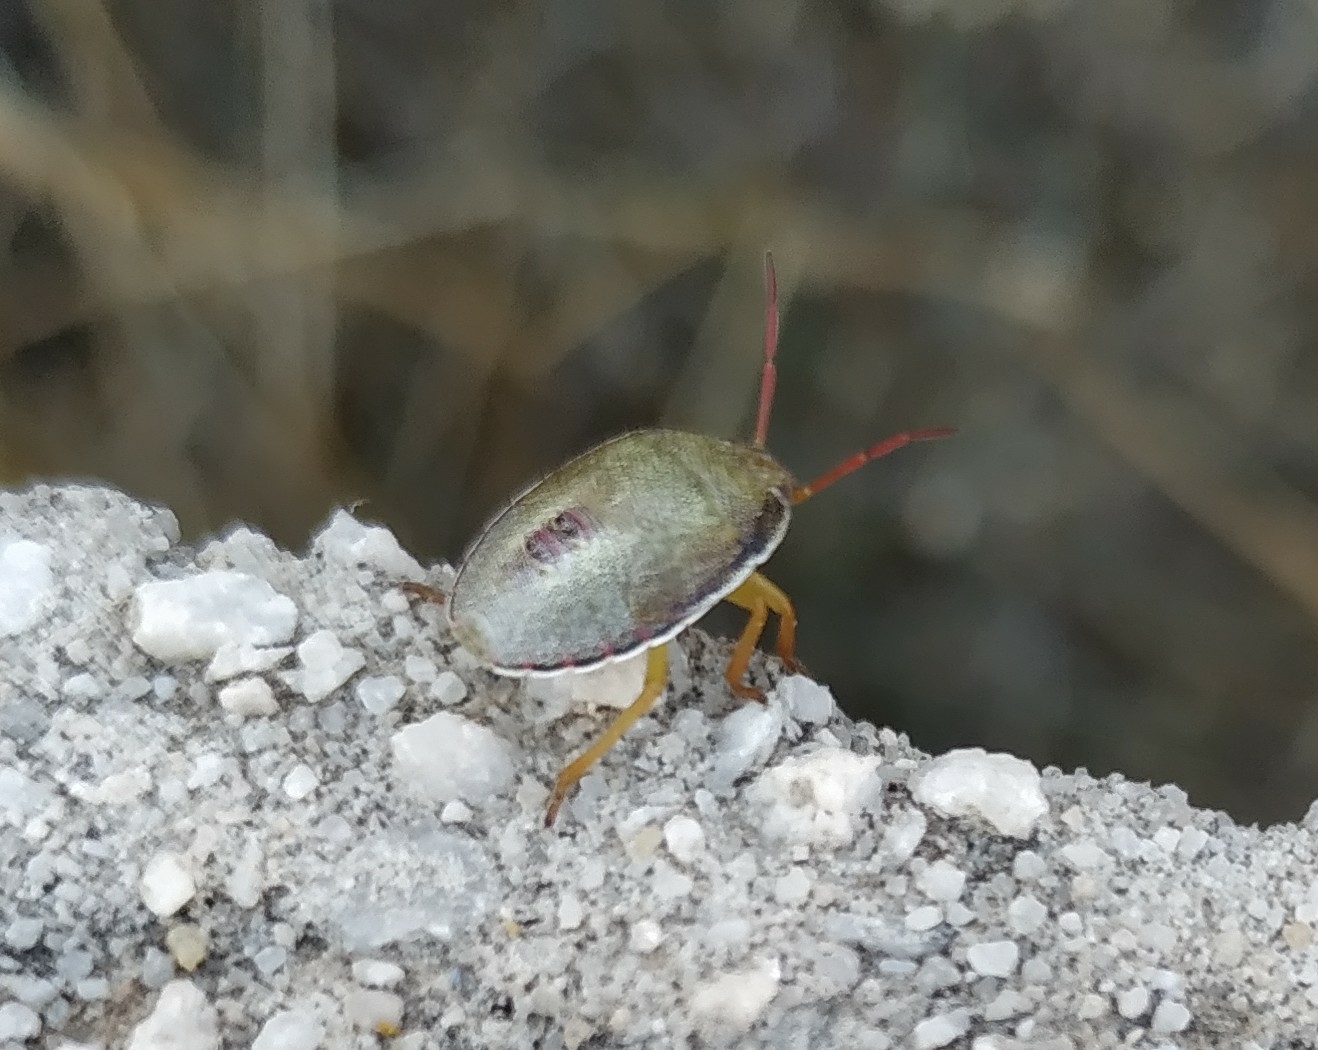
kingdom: Animalia
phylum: Arthropoda
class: Insecta
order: Hemiptera
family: Pentatomidae
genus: Piezodorus
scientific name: Piezodorus lituratus
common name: Stink bug
